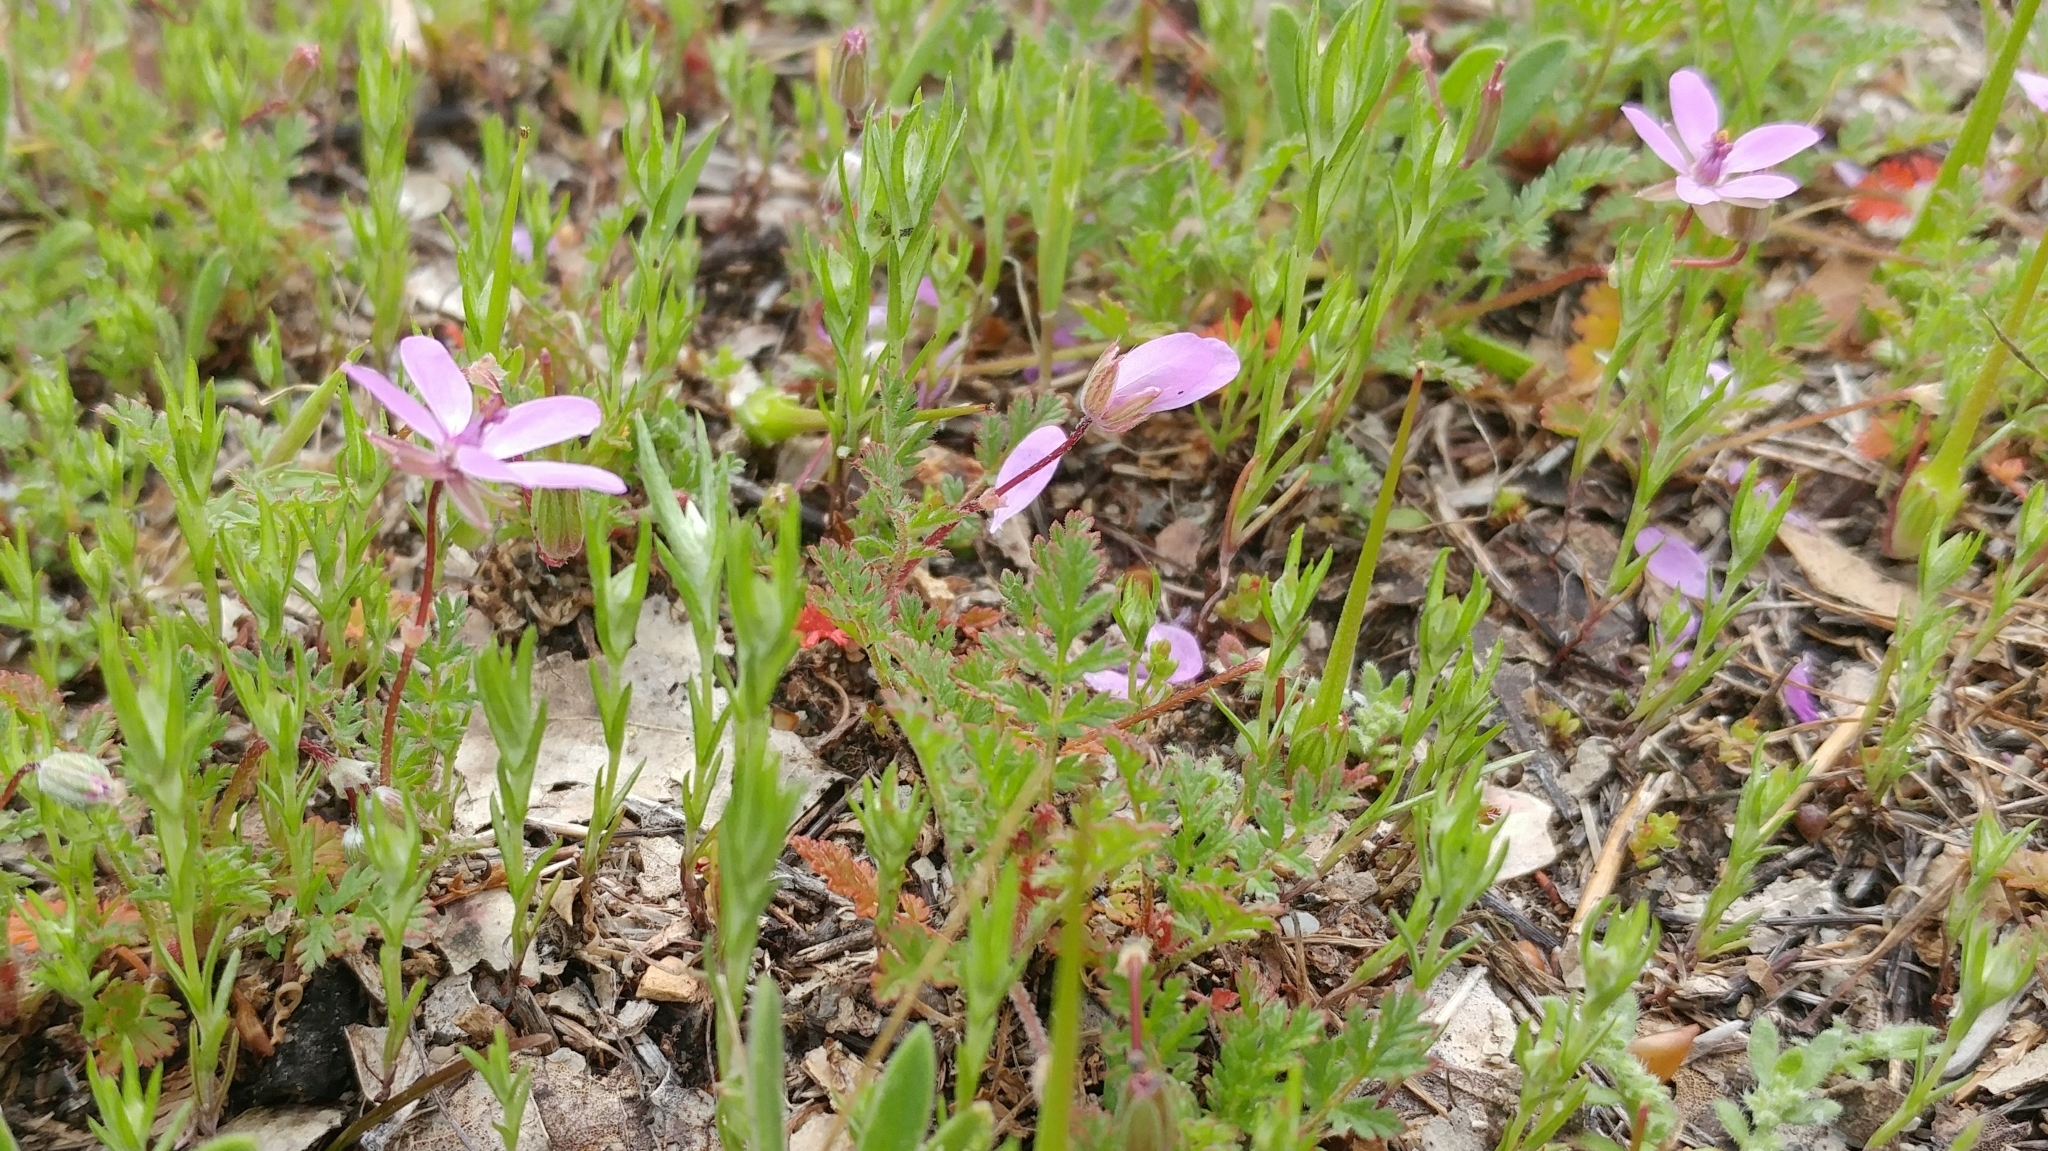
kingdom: Plantae
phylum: Tracheophyta
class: Magnoliopsida
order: Geraniales
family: Geraniaceae
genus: Erodium
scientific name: Erodium cicutarium
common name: Common stork's-bill
